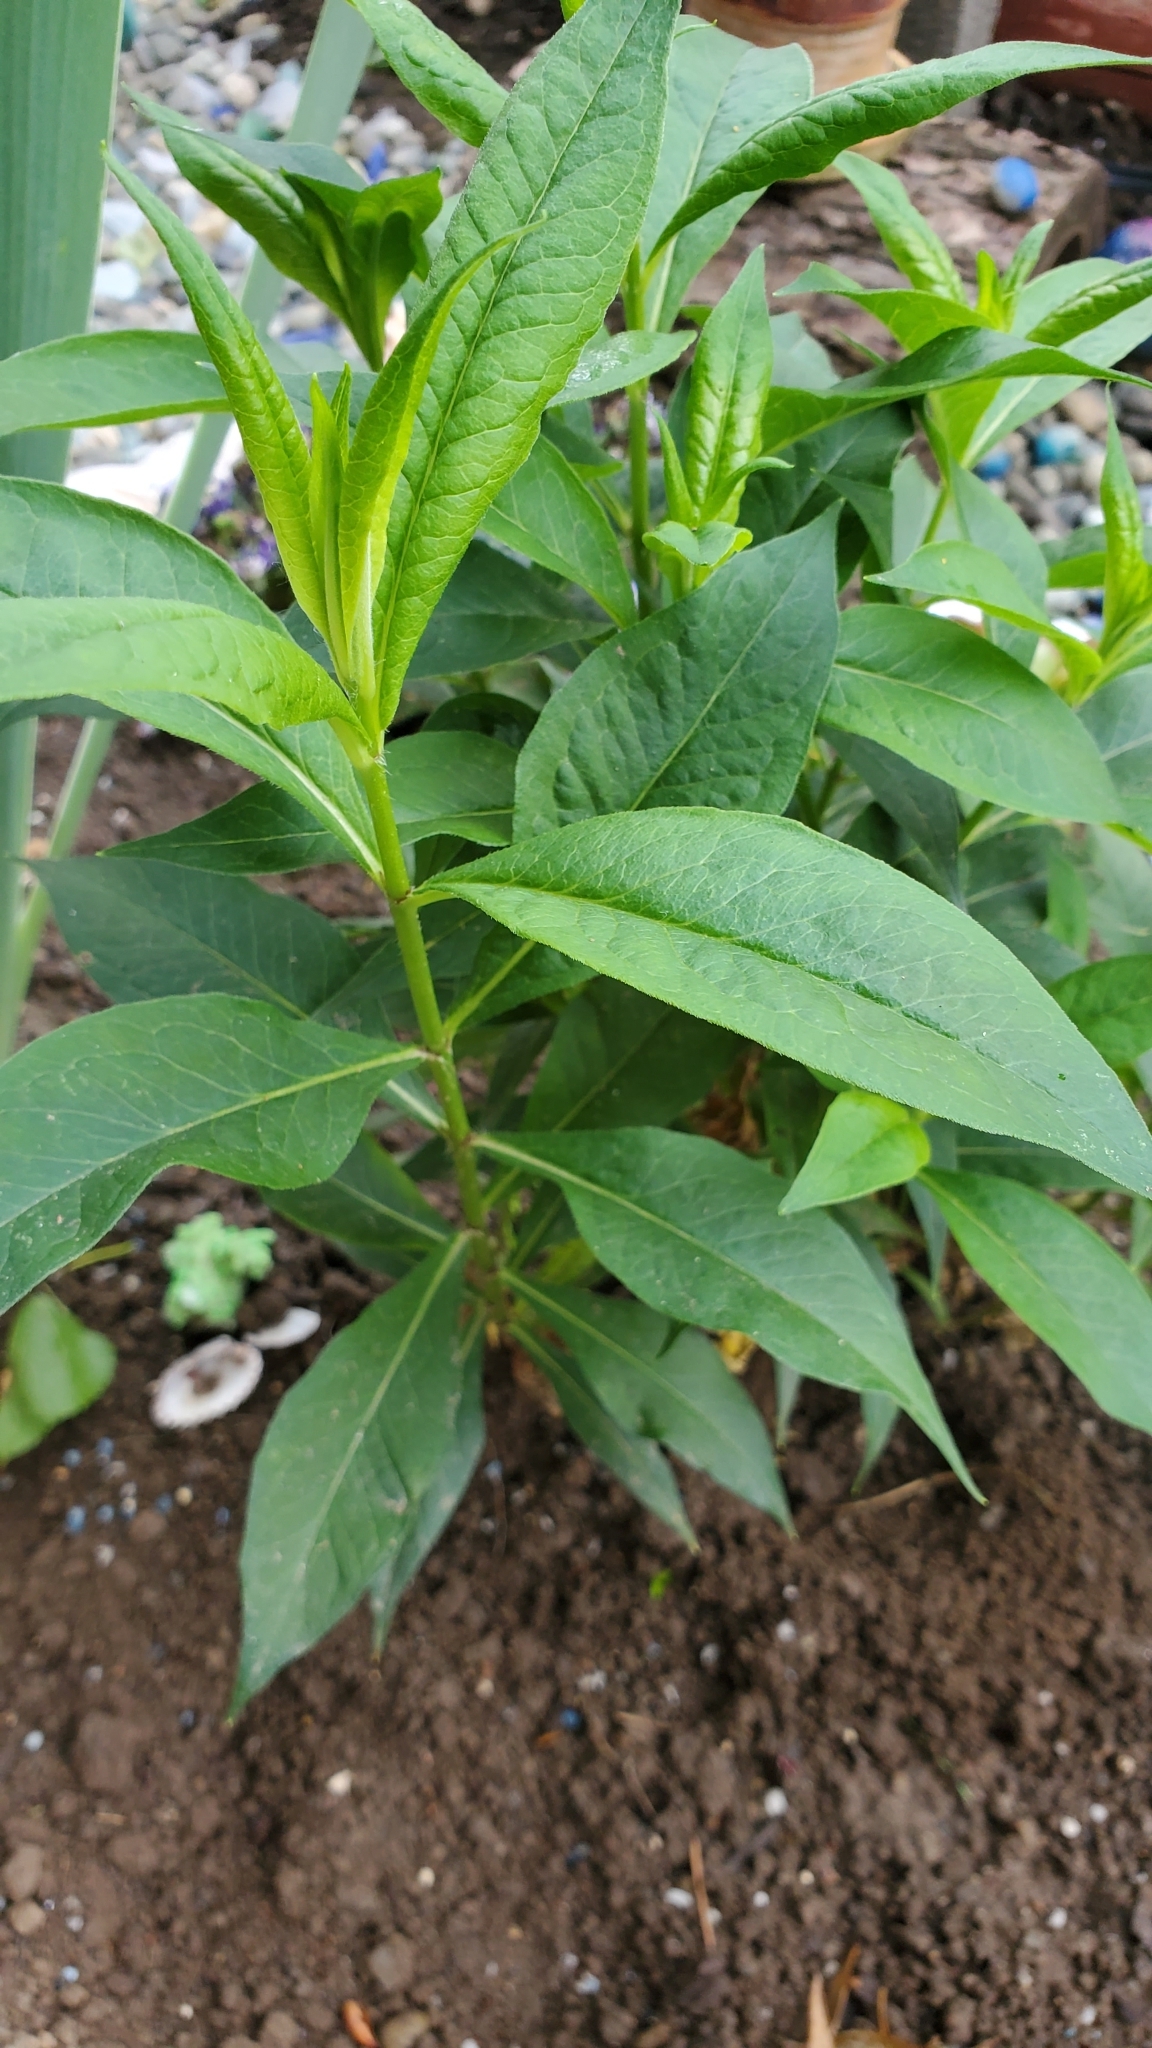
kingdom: Plantae
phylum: Tracheophyta
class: Magnoliopsida
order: Ericales
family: Primulaceae
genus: Lysimachia
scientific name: Lysimachia vulgaris
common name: Yellow loosestrife
